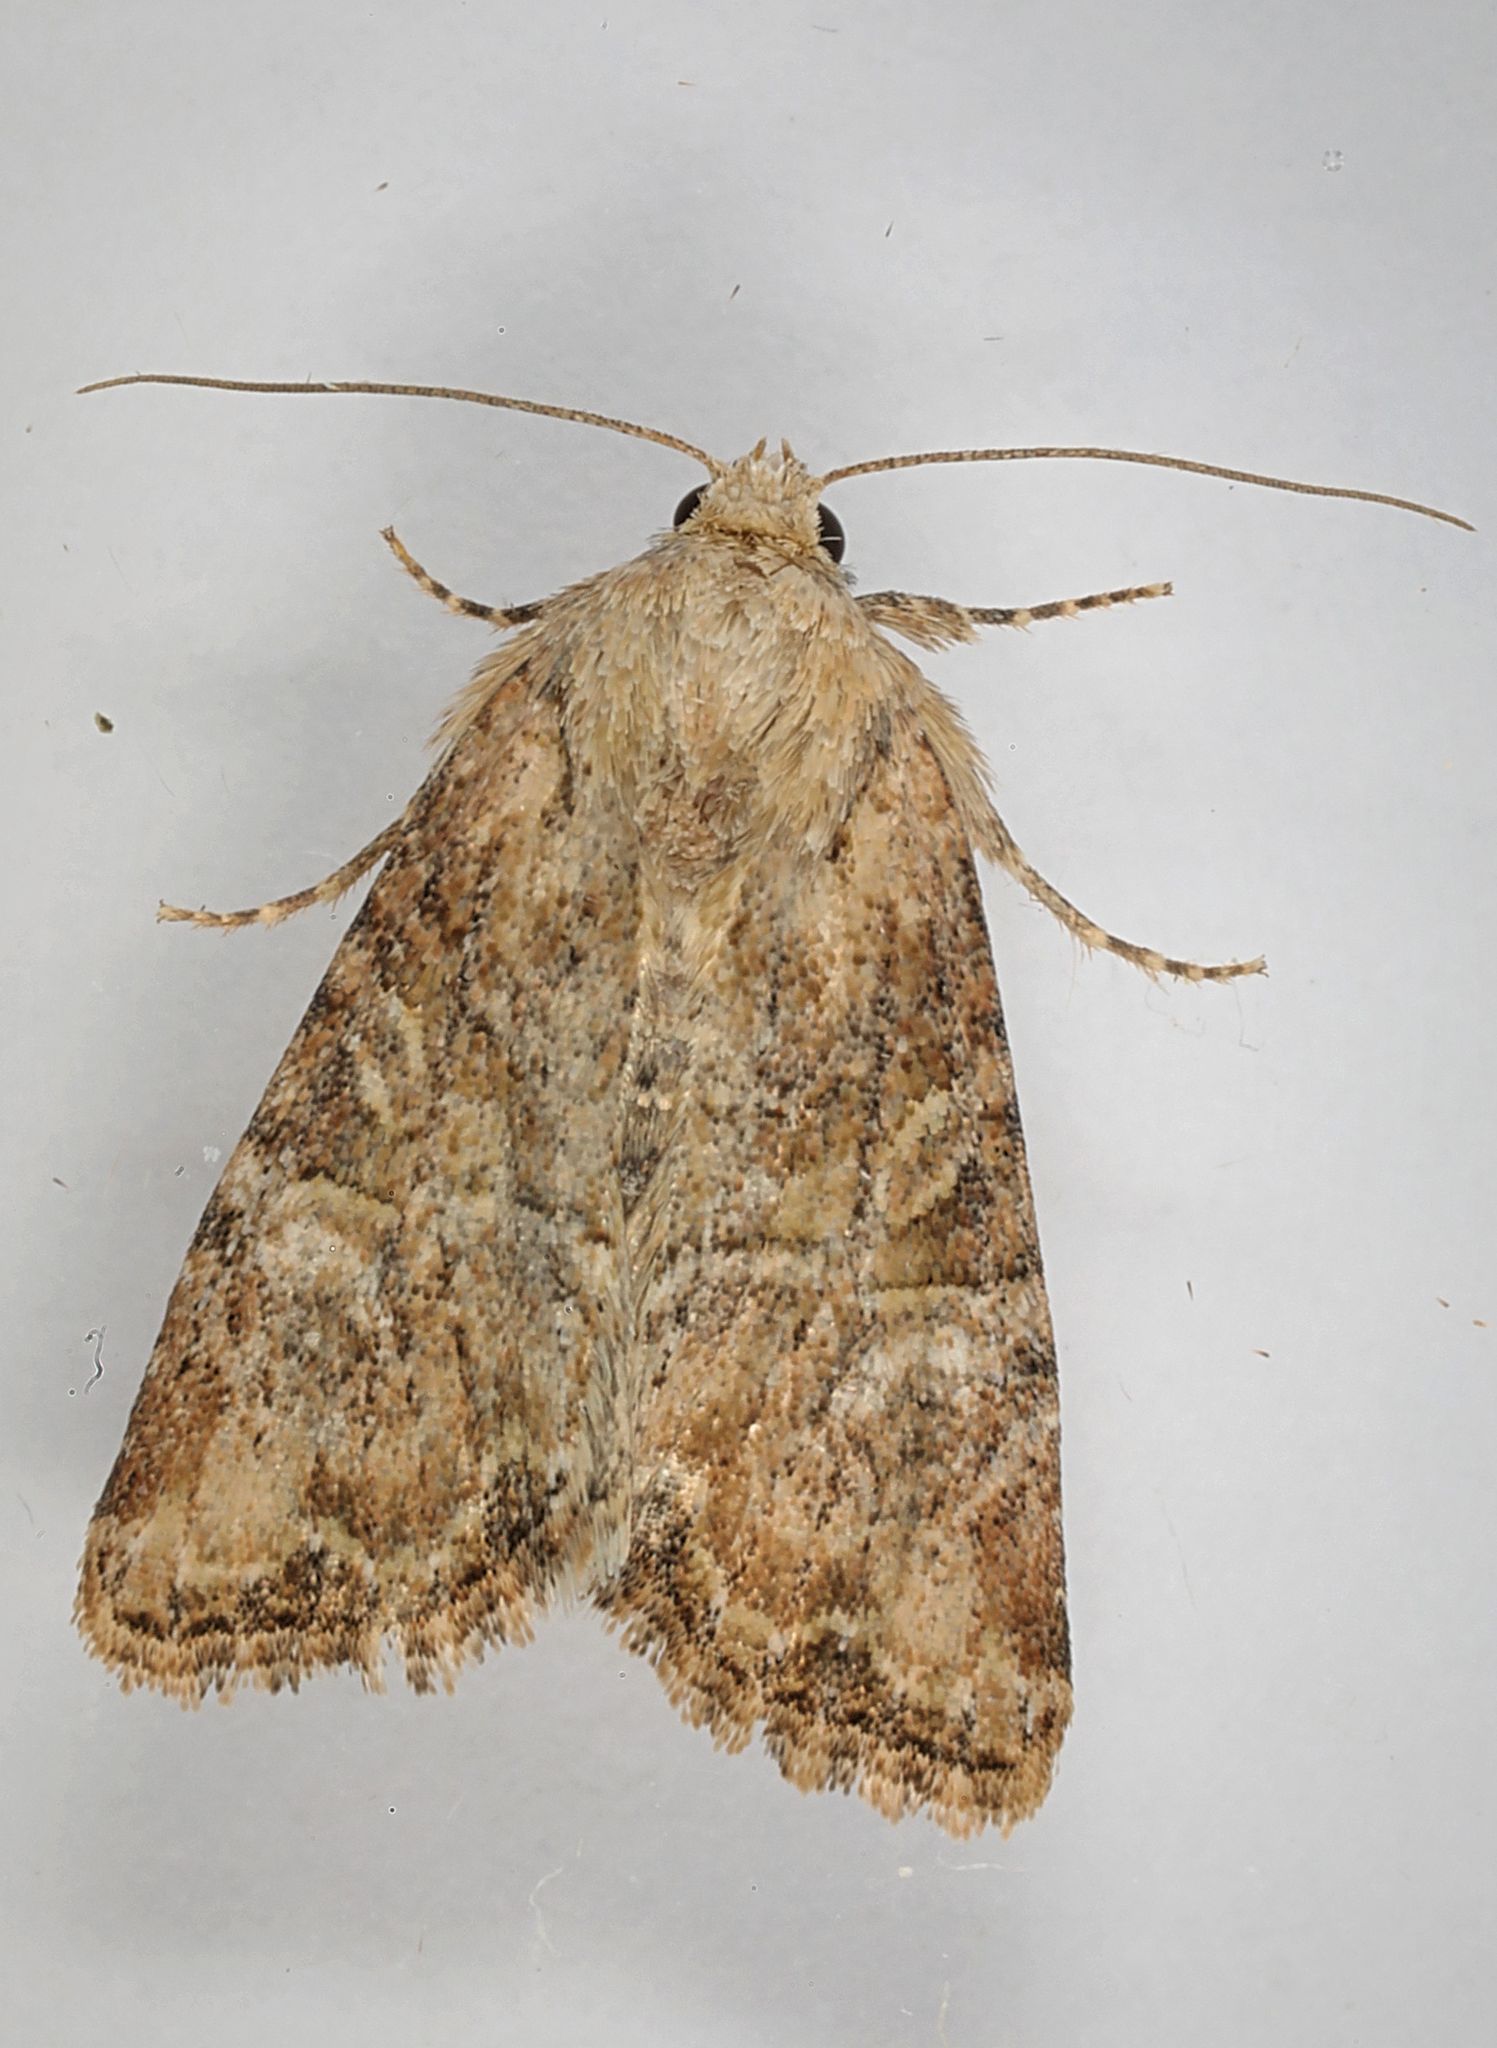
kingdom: Animalia
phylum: Arthropoda
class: Insecta
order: Lepidoptera
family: Noctuidae
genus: Mesoligia
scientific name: Mesoligia furuncula
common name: Cloaked minor
